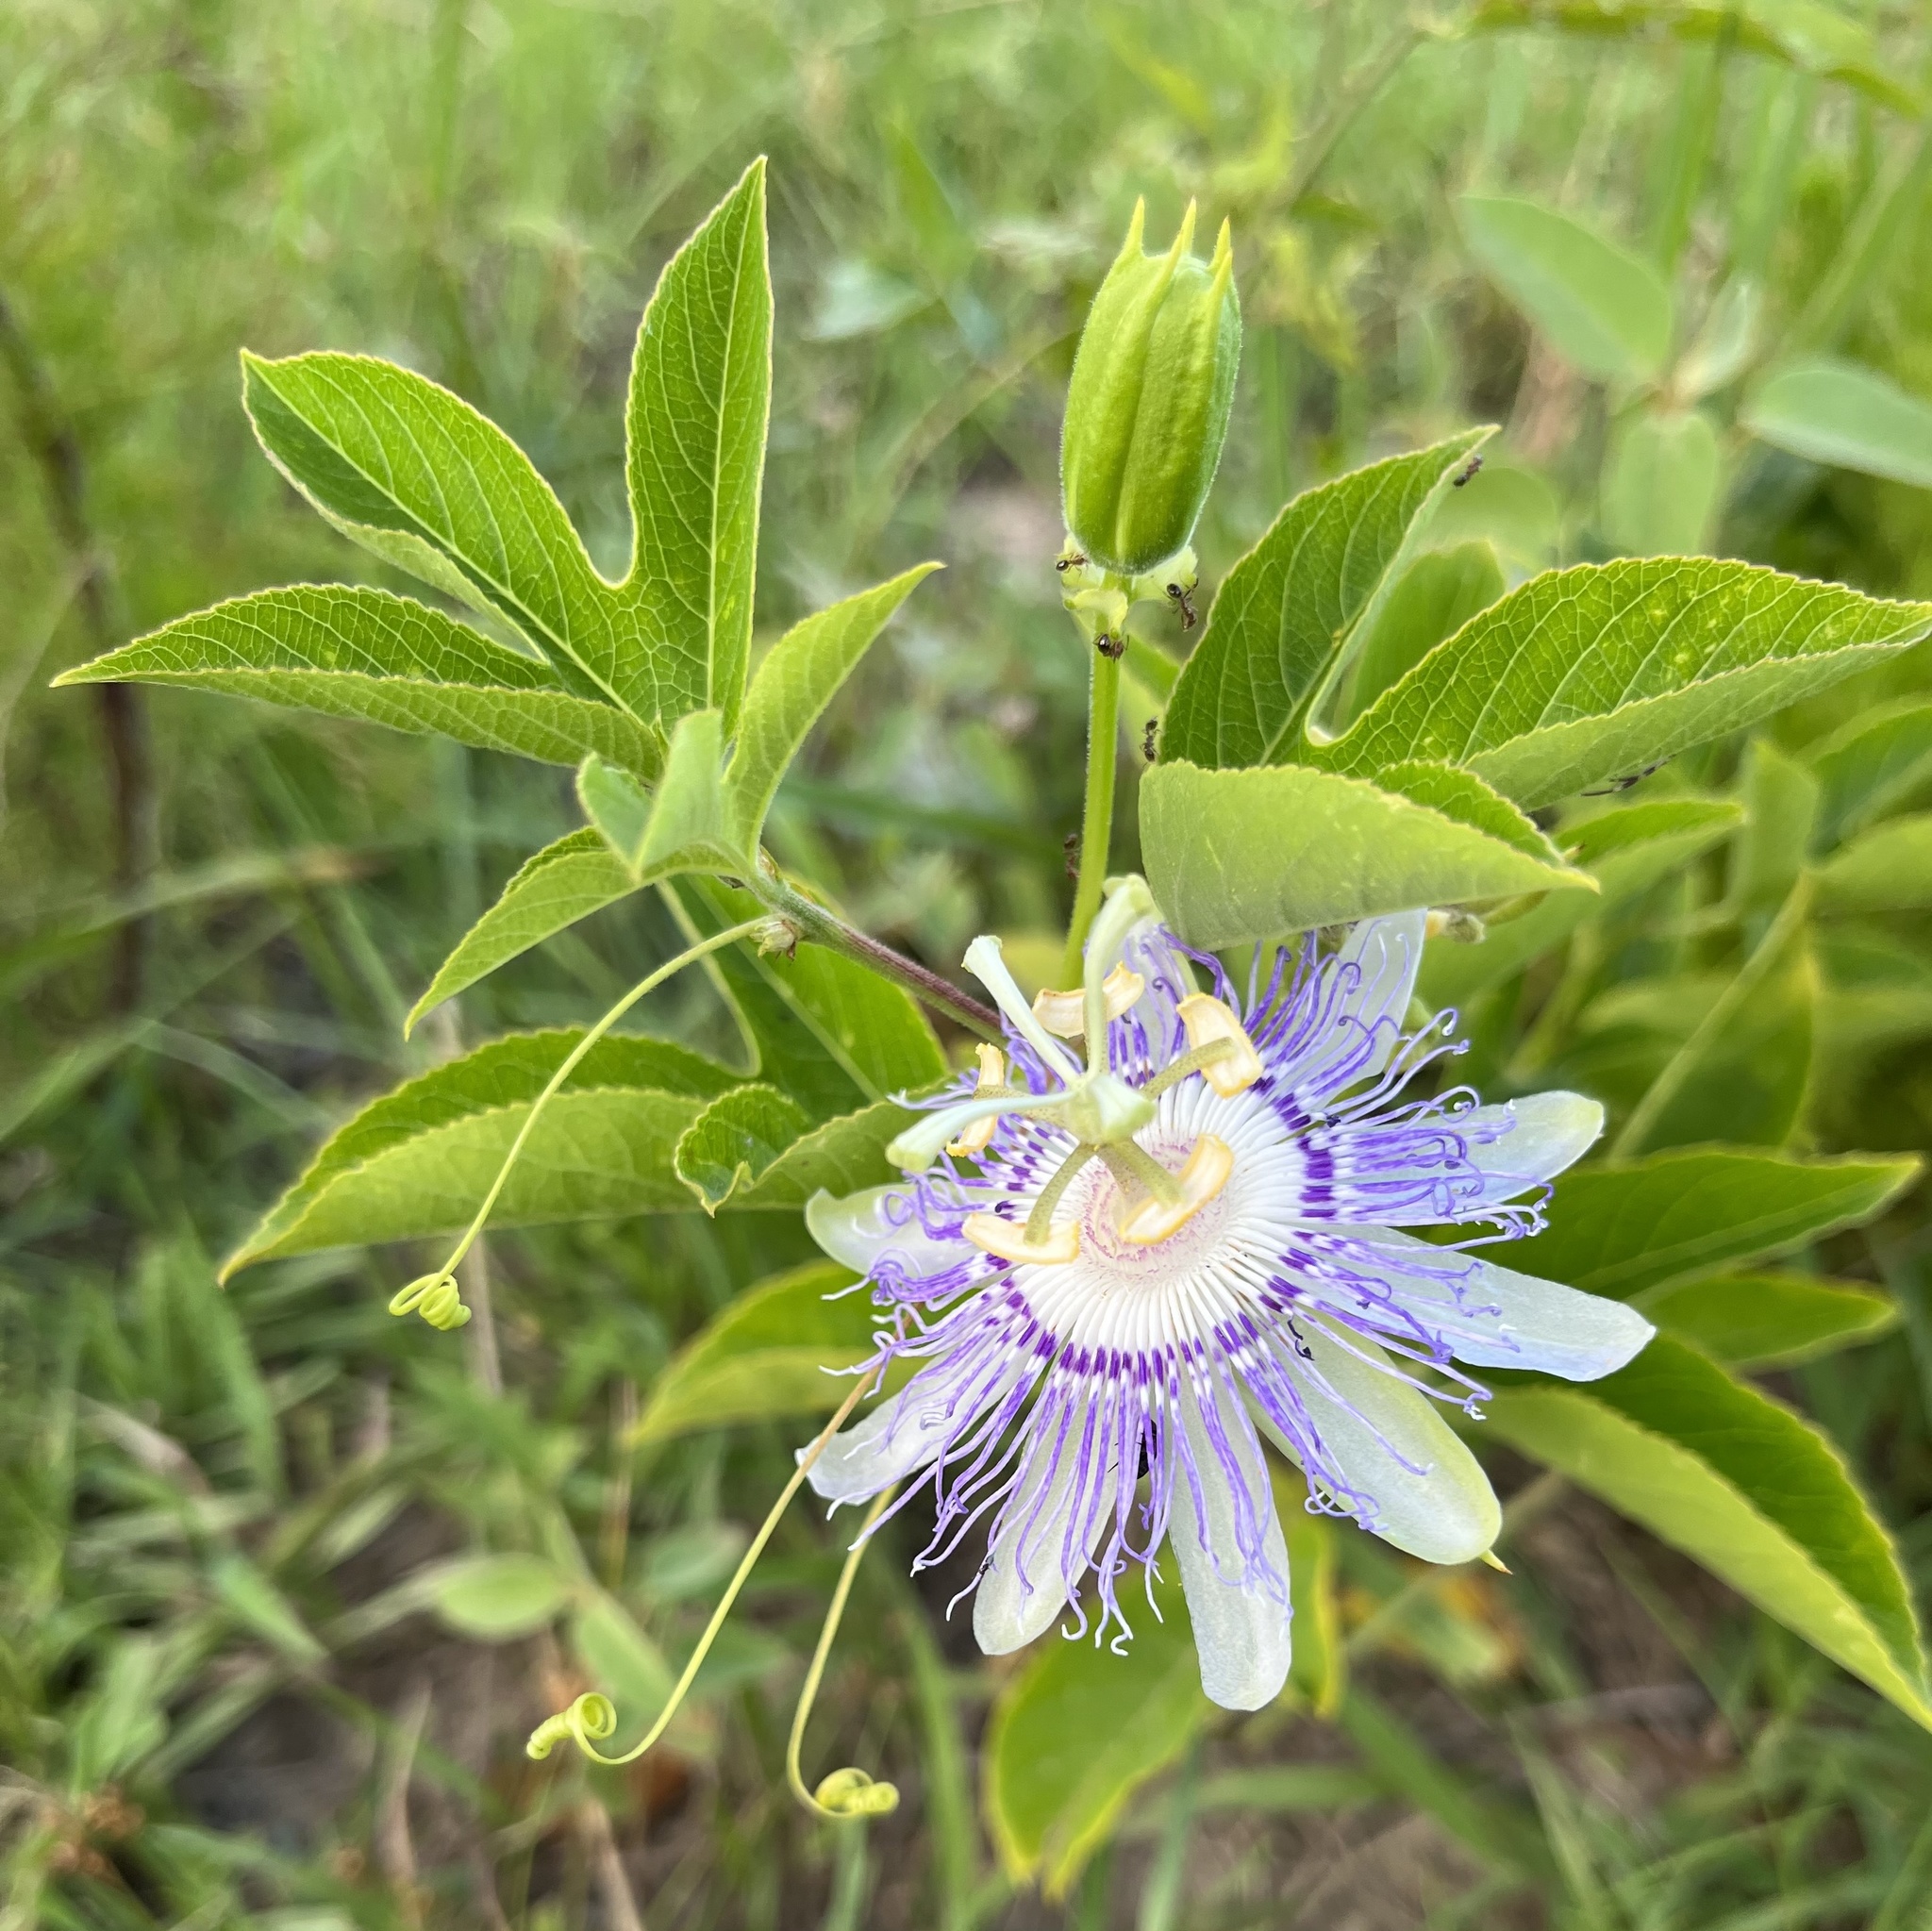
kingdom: Plantae
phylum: Tracheophyta
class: Magnoliopsida
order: Malpighiales
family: Passifloraceae
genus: Passiflora
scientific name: Passiflora incarnata
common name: Apricot-vine
